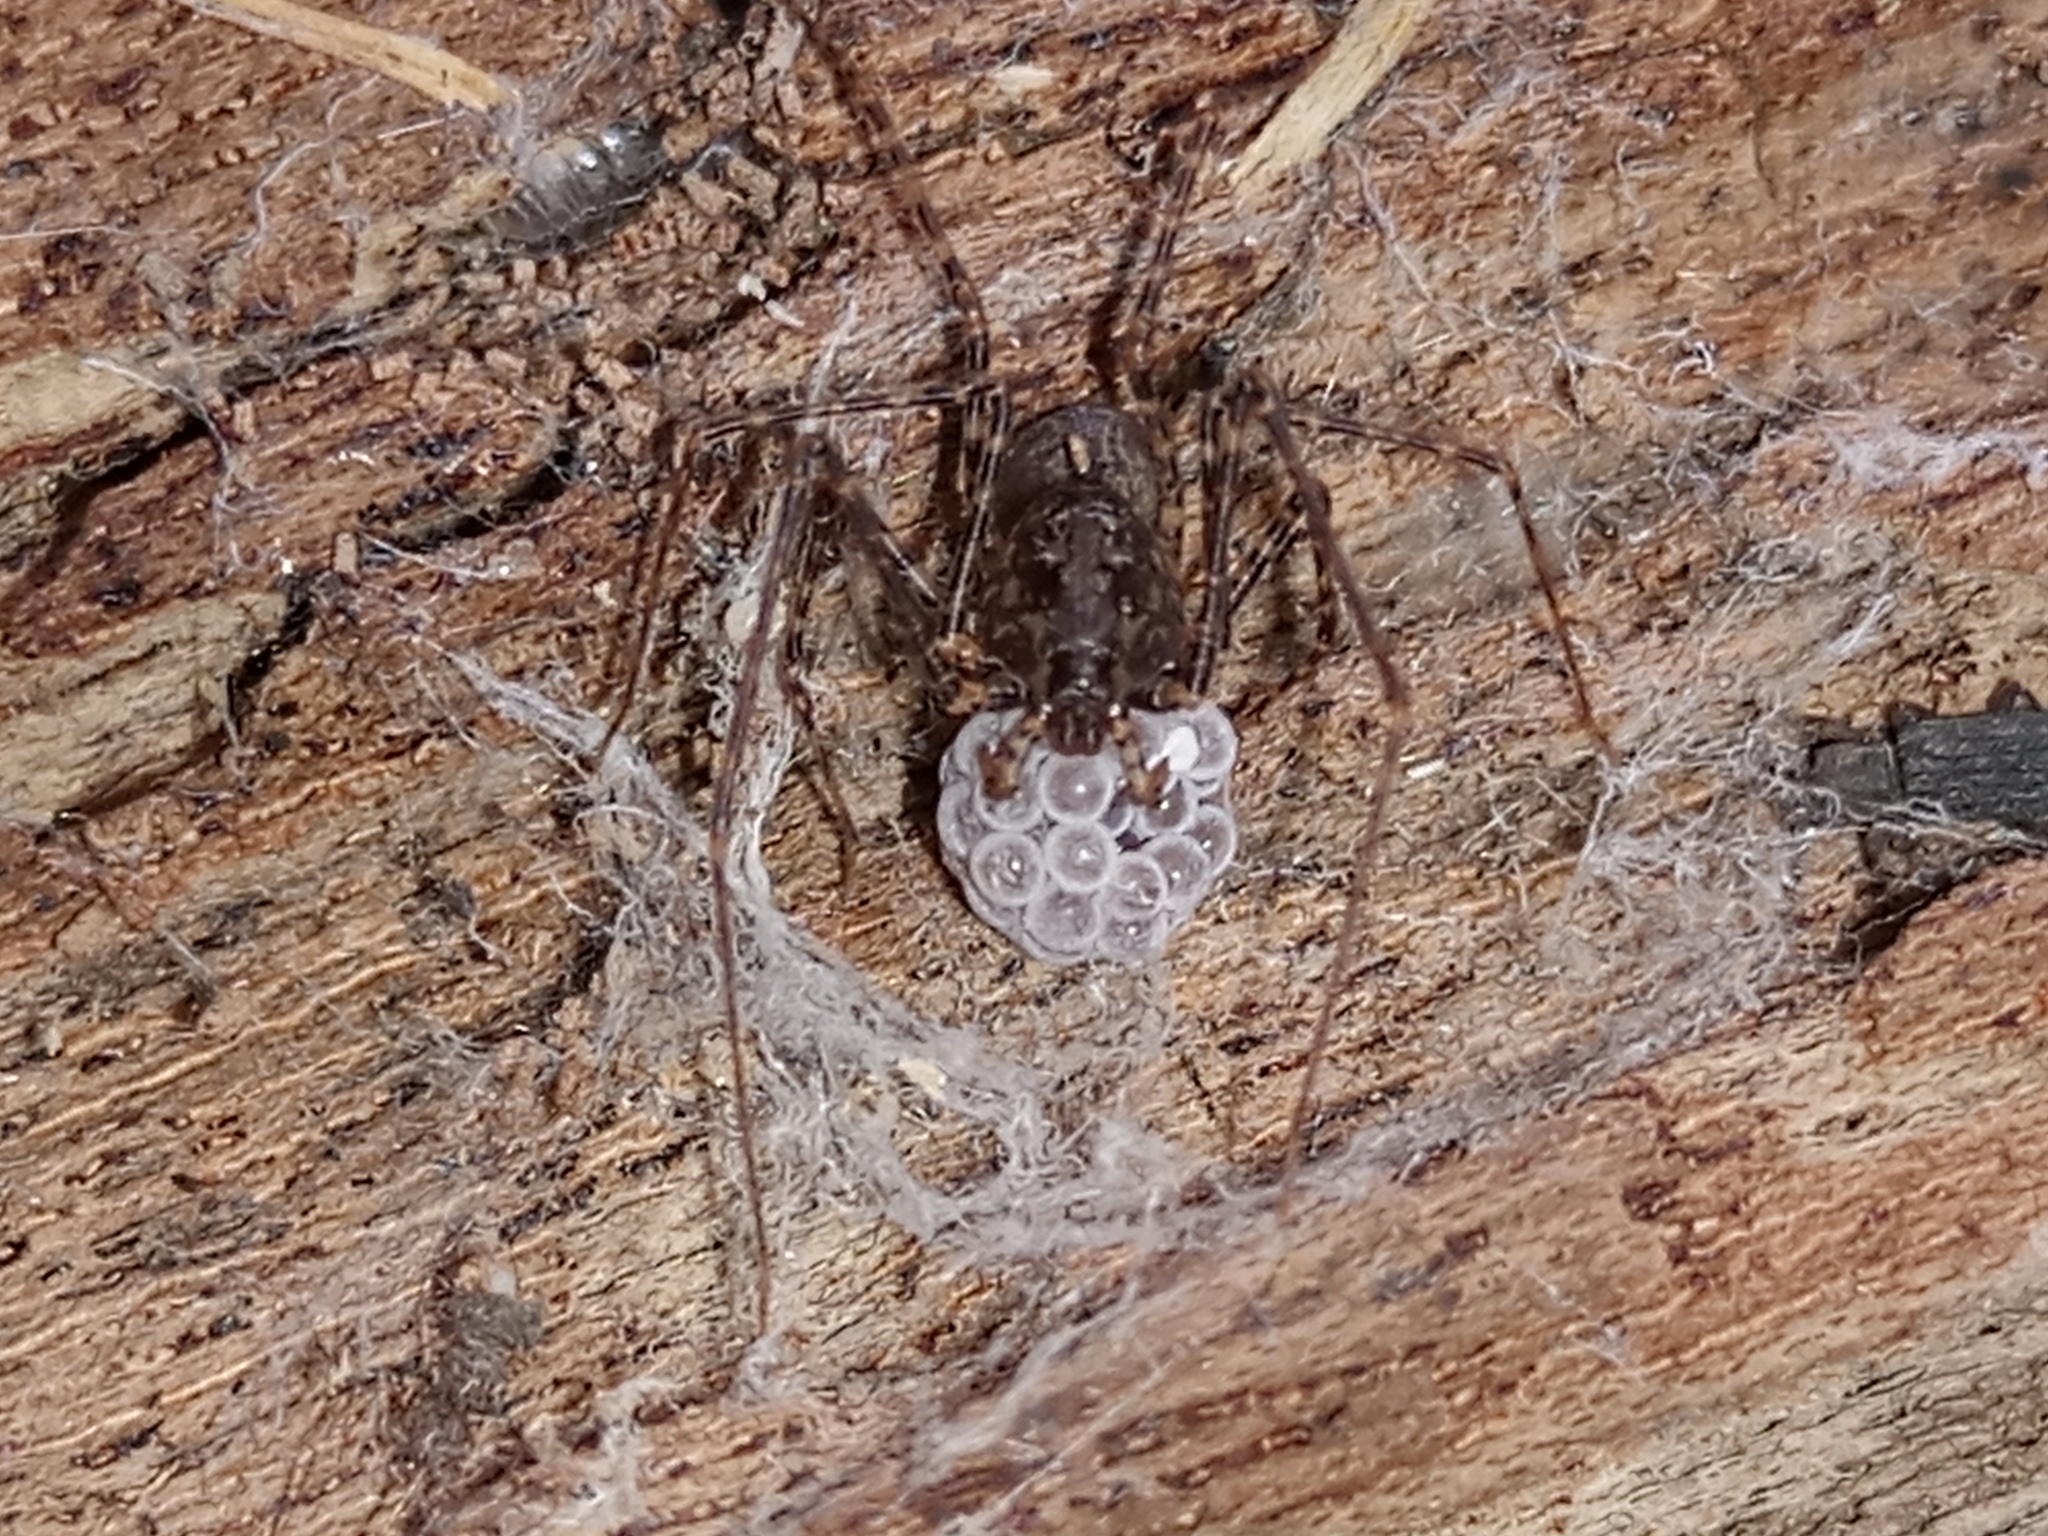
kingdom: Animalia
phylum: Arthropoda
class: Arachnida
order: Araneae
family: Scytodidae
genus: Scytodes
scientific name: Scytodes globula
